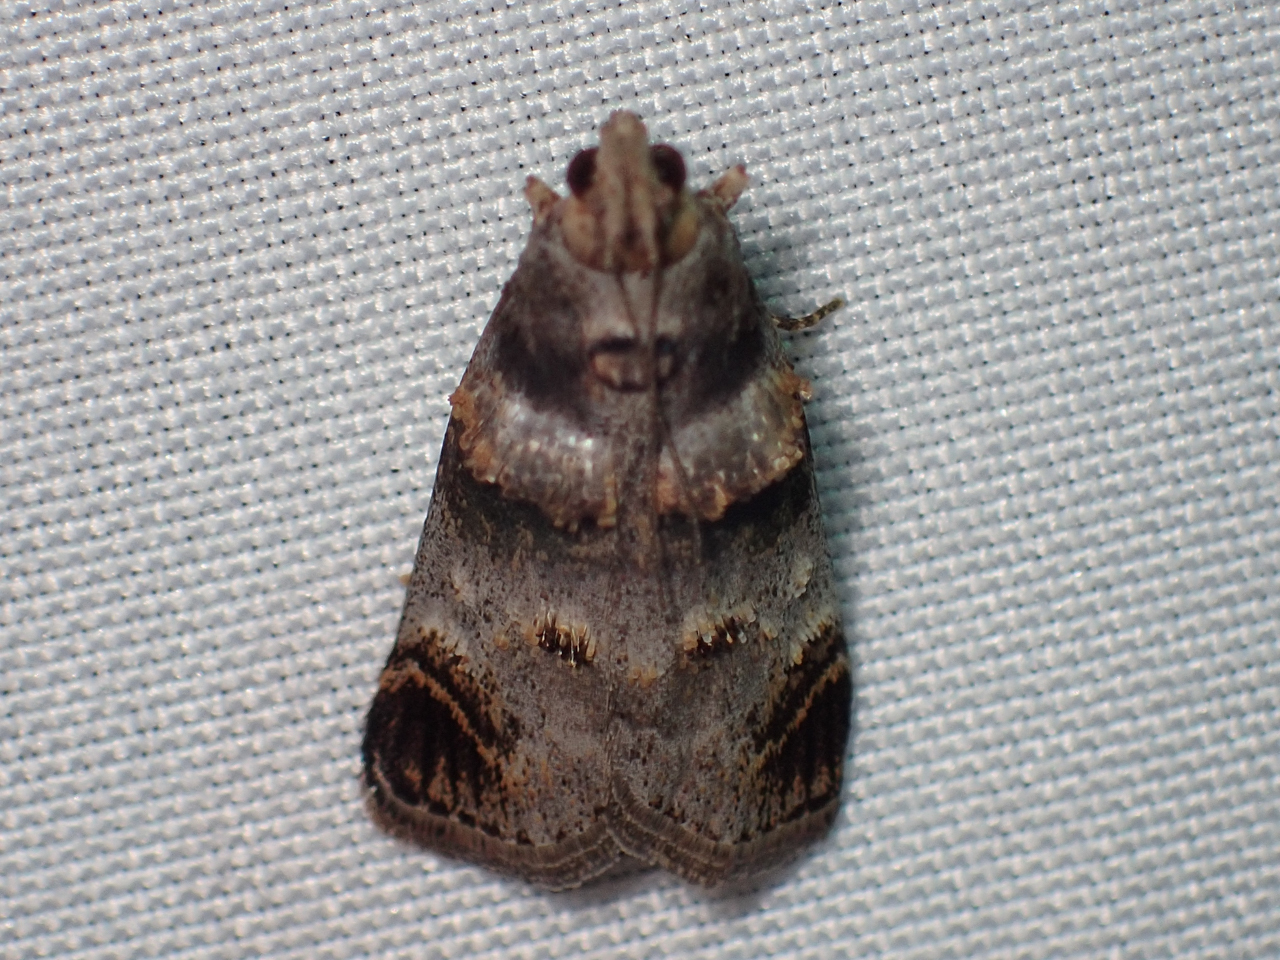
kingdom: Animalia
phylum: Arthropoda
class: Insecta
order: Lepidoptera
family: Pyralidae
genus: Oneida
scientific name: Oneida lunulalis
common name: Orange-tufted oneida moth
